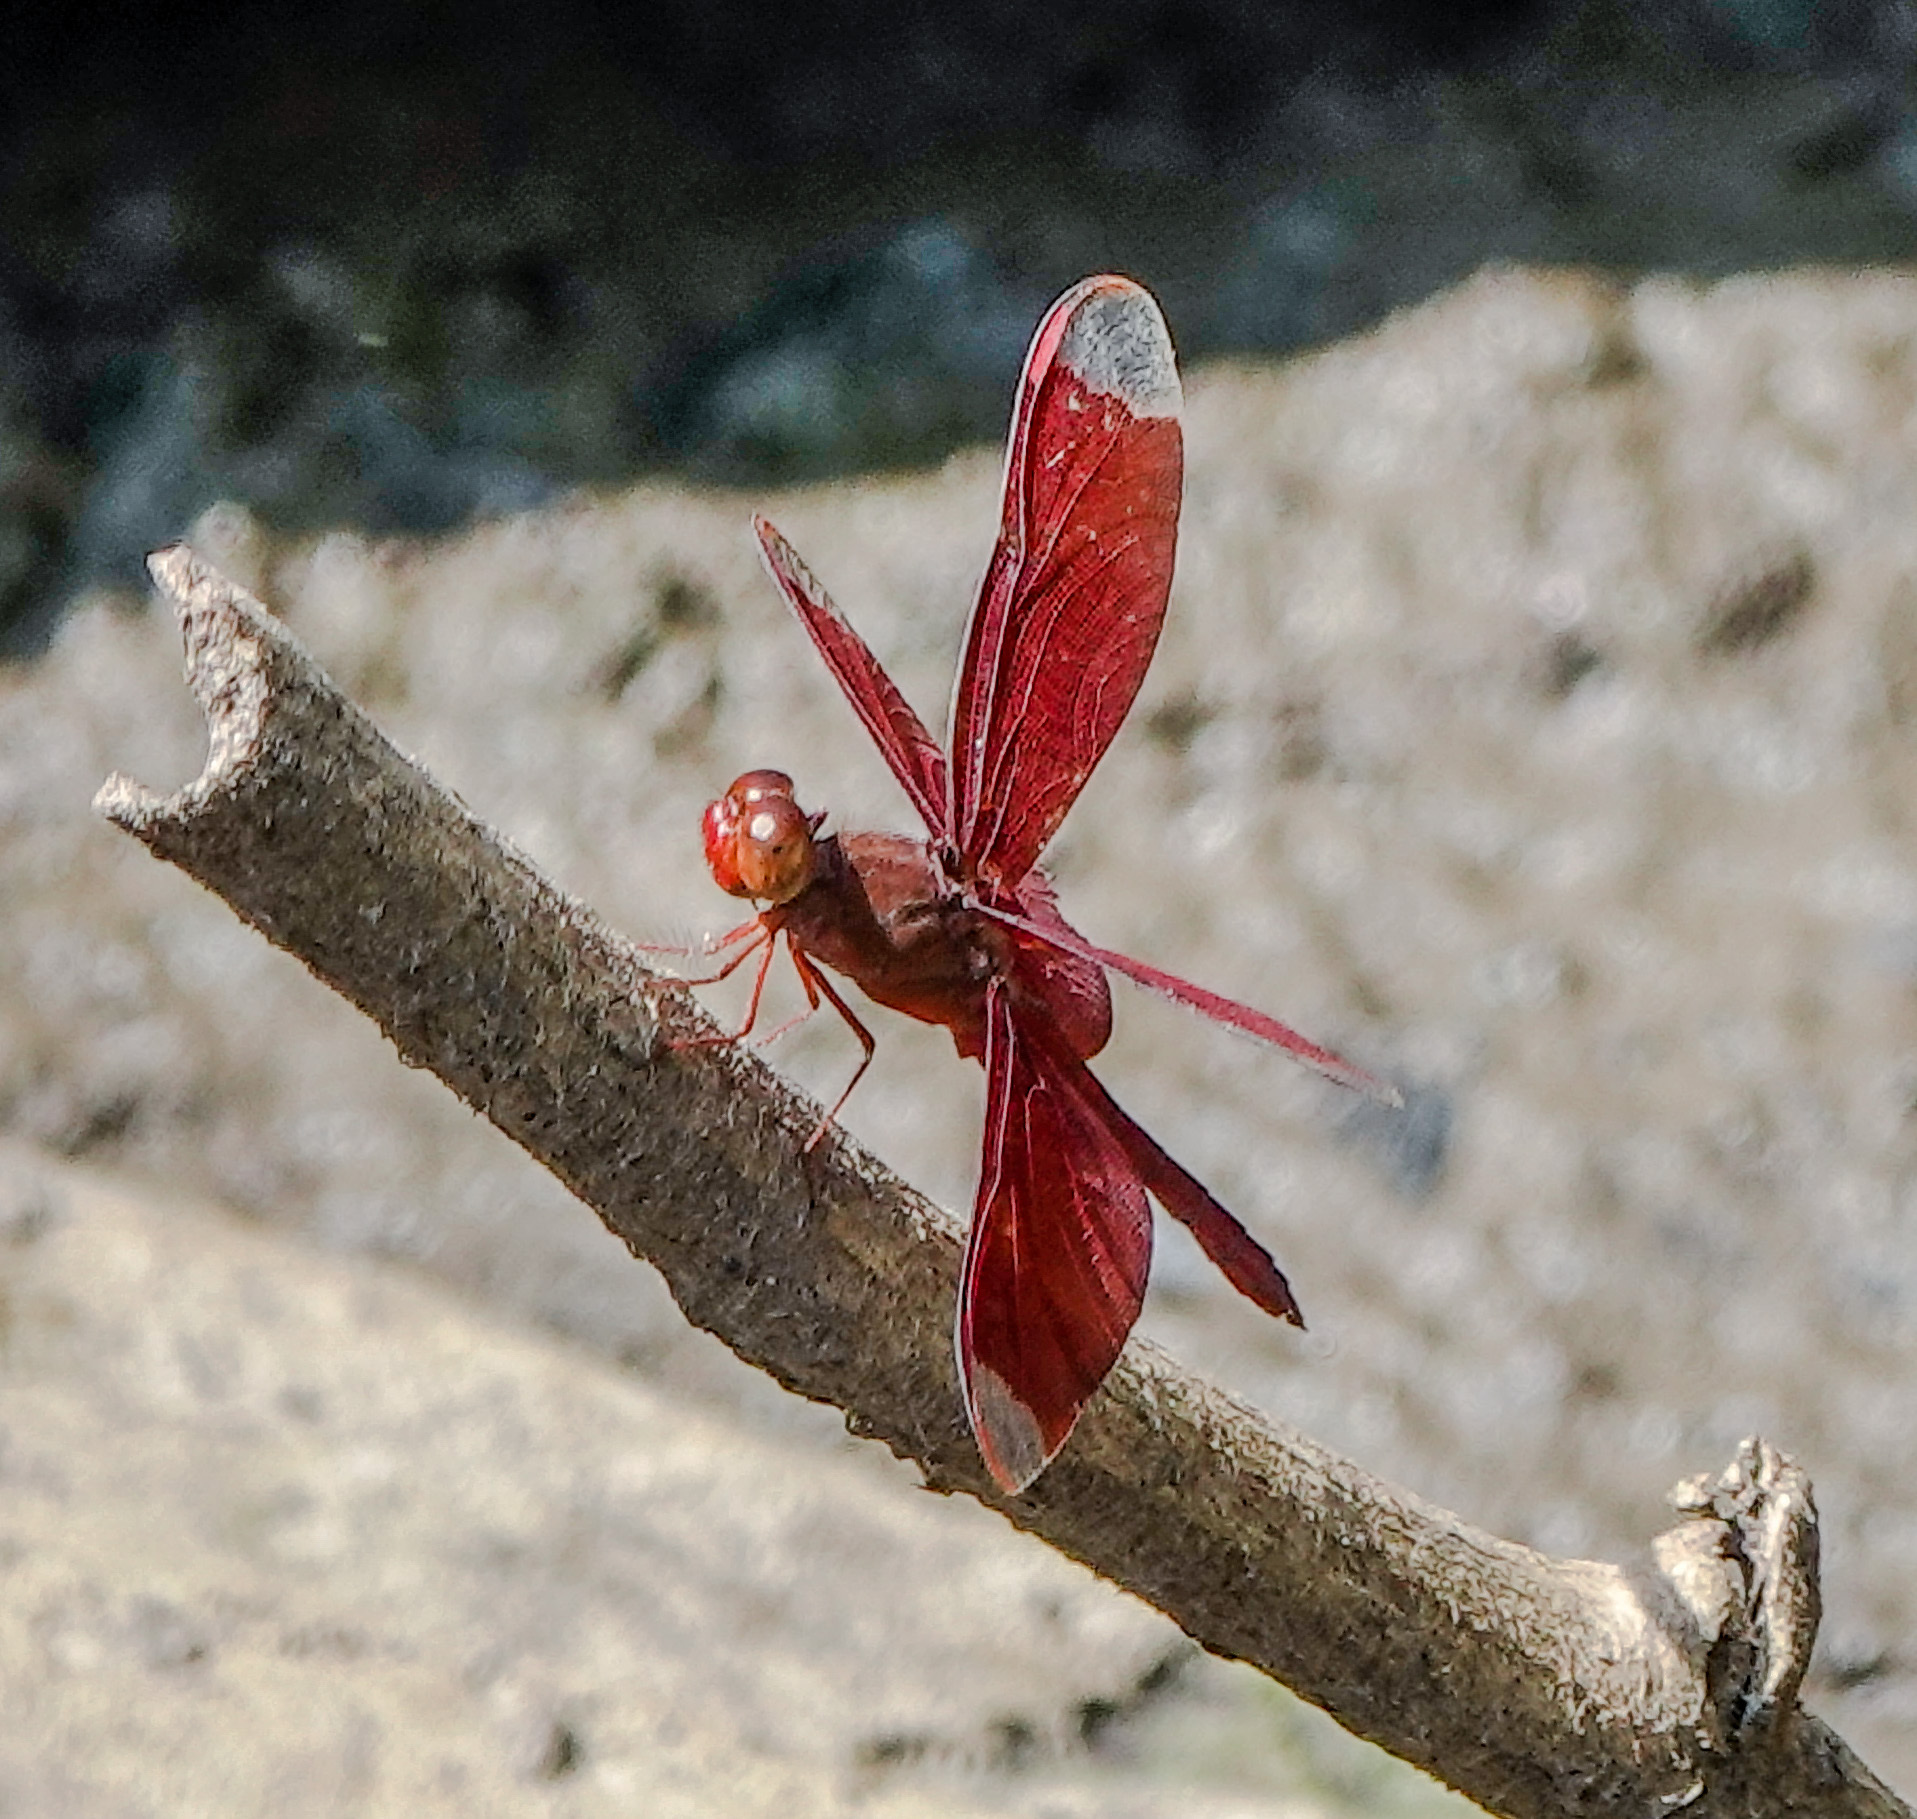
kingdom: Animalia
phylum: Arthropoda
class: Insecta
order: Odonata
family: Libellulidae
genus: Neurothemis
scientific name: Neurothemis fulvia
